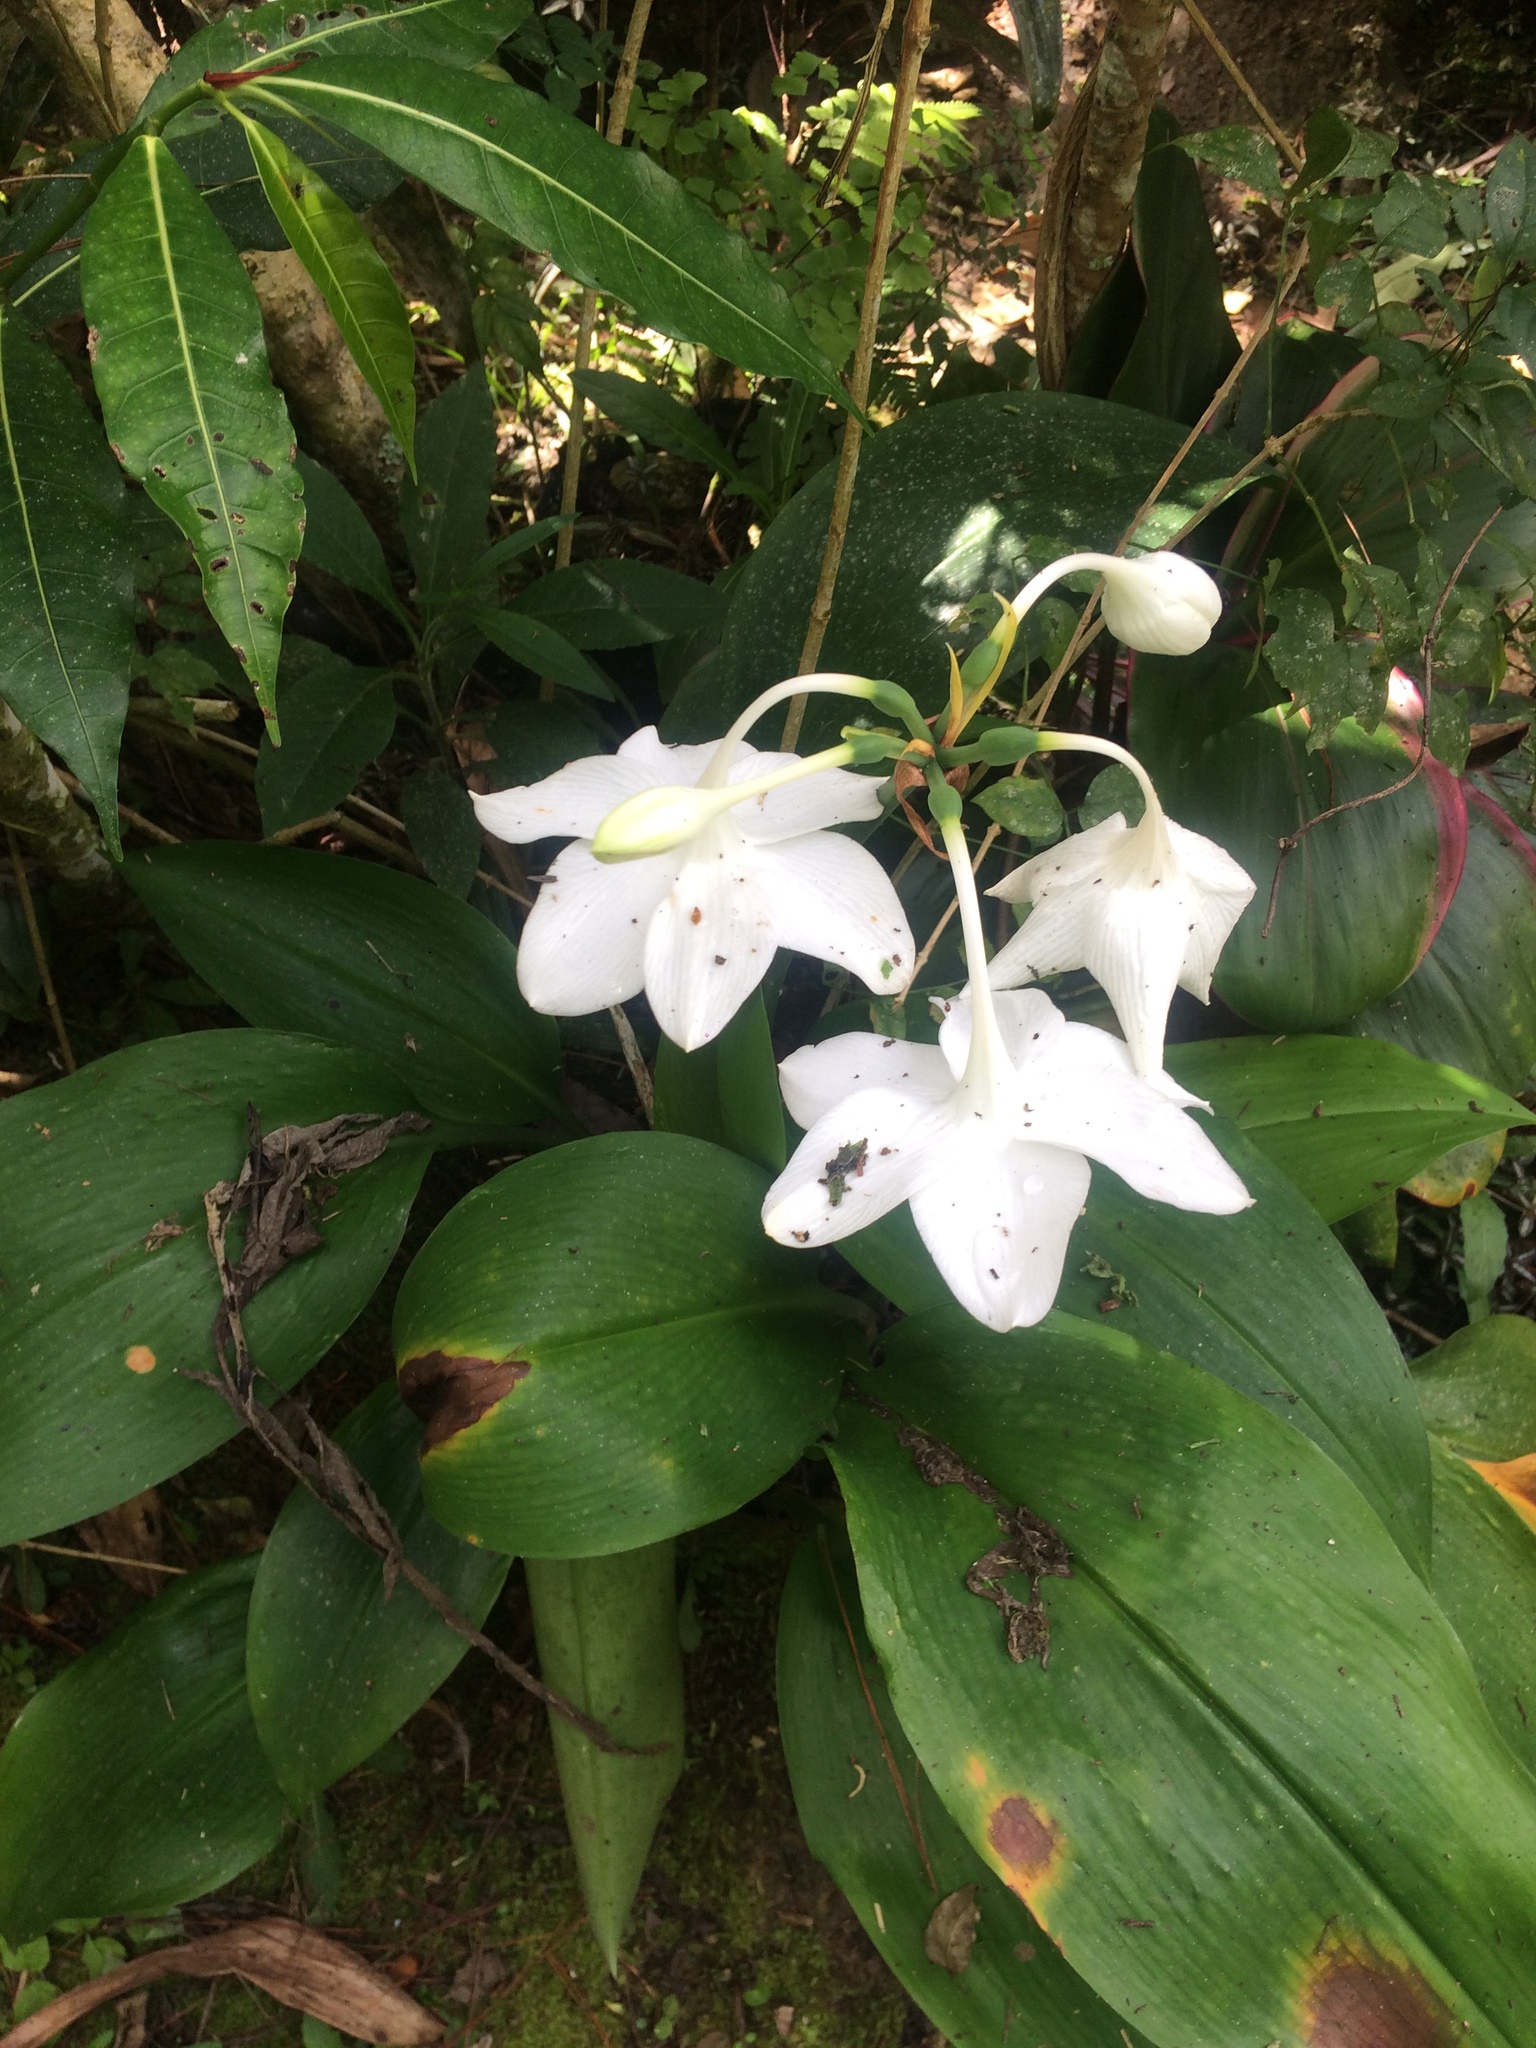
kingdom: Plantae
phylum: Tracheophyta
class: Liliopsida
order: Asparagales
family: Amaryllidaceae
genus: Urceolina
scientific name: Urceolina grandiflora
